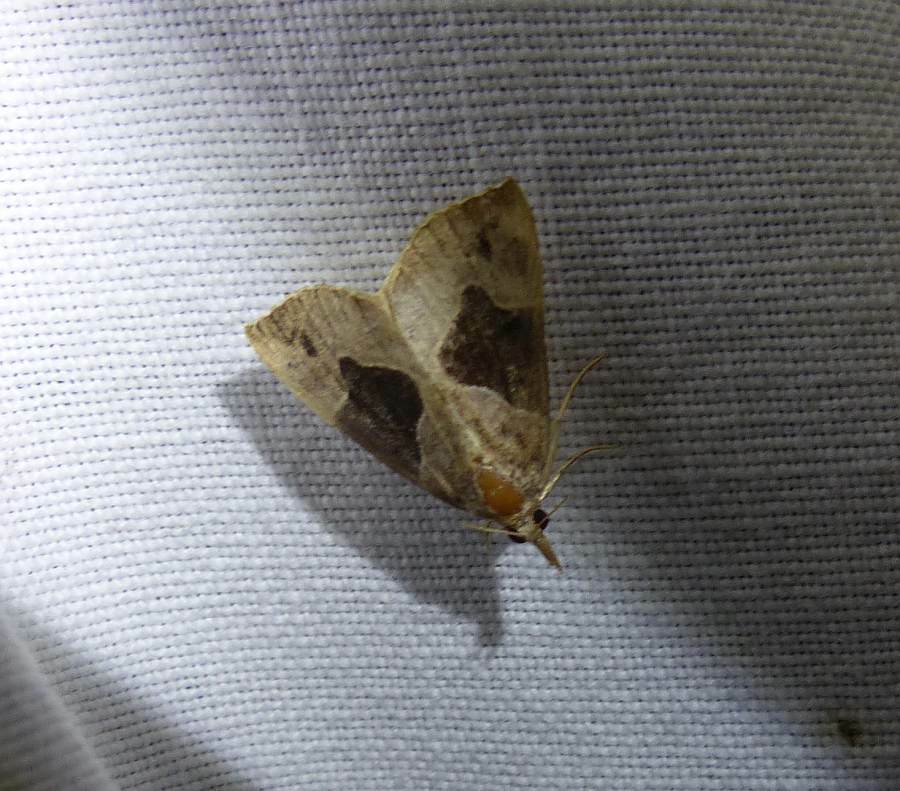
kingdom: Animalia
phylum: Arthropoda
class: Insecta
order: Lepidoptera
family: Erebidae
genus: Hypena
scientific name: Hypena manalis
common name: Flowing-line bomolocha moth
